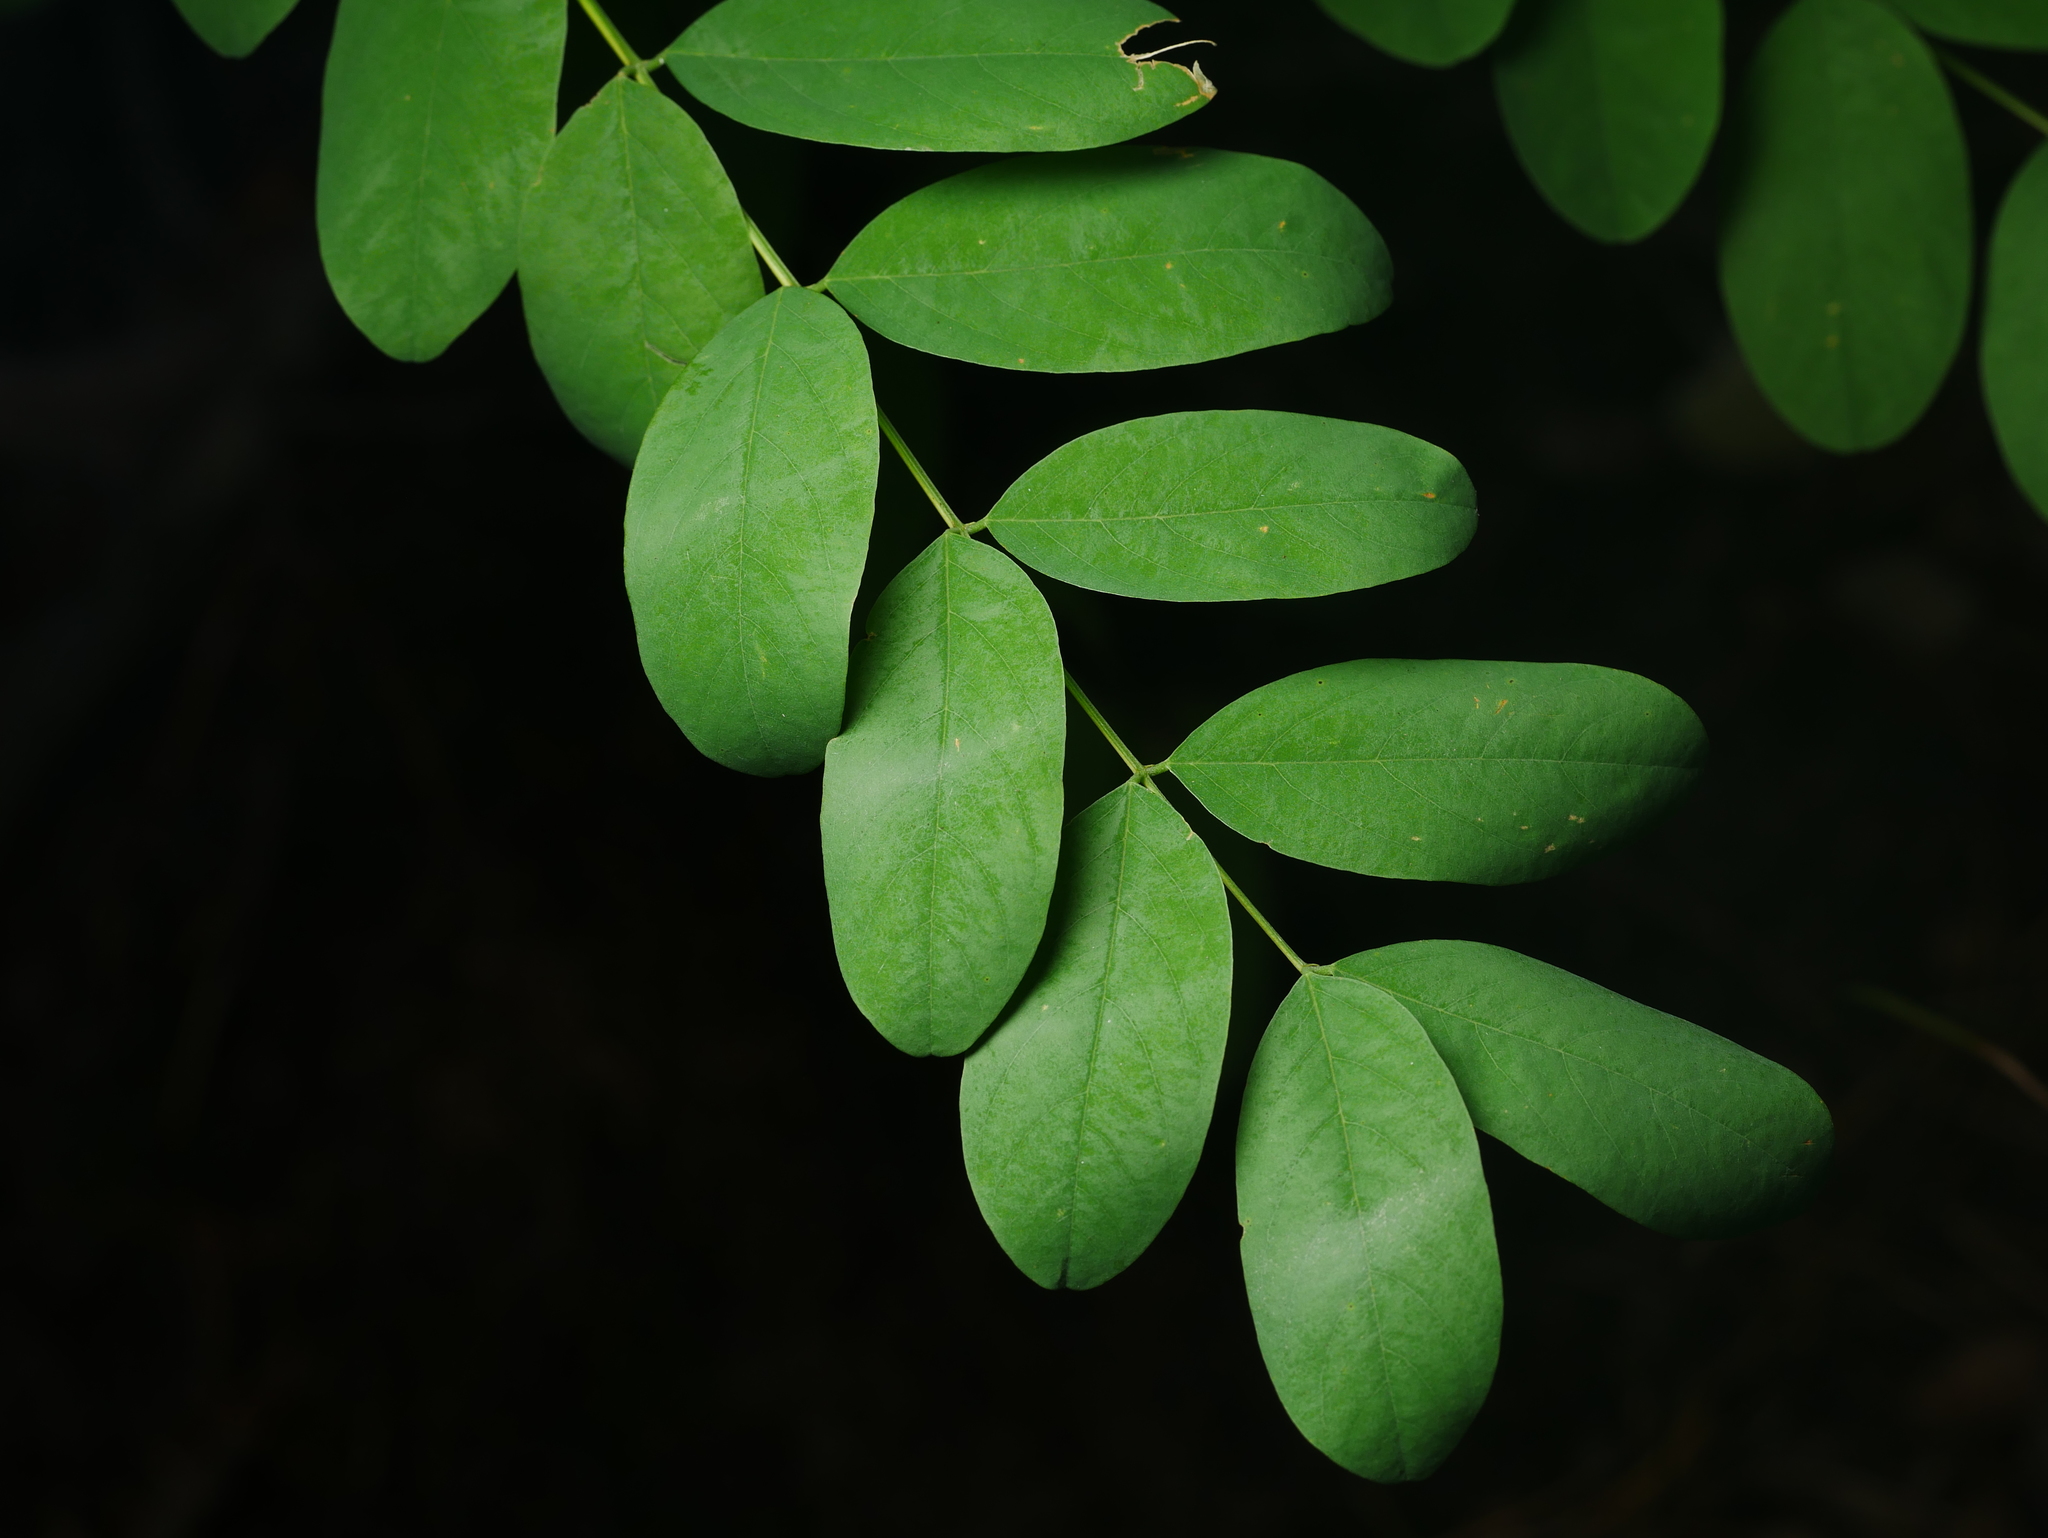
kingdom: Plantae
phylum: Tracheophyta
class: Magnoliopsida
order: Fabales
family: Fabaceae
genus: Robinia
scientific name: Robinia pseudoacacia
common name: Black locust
